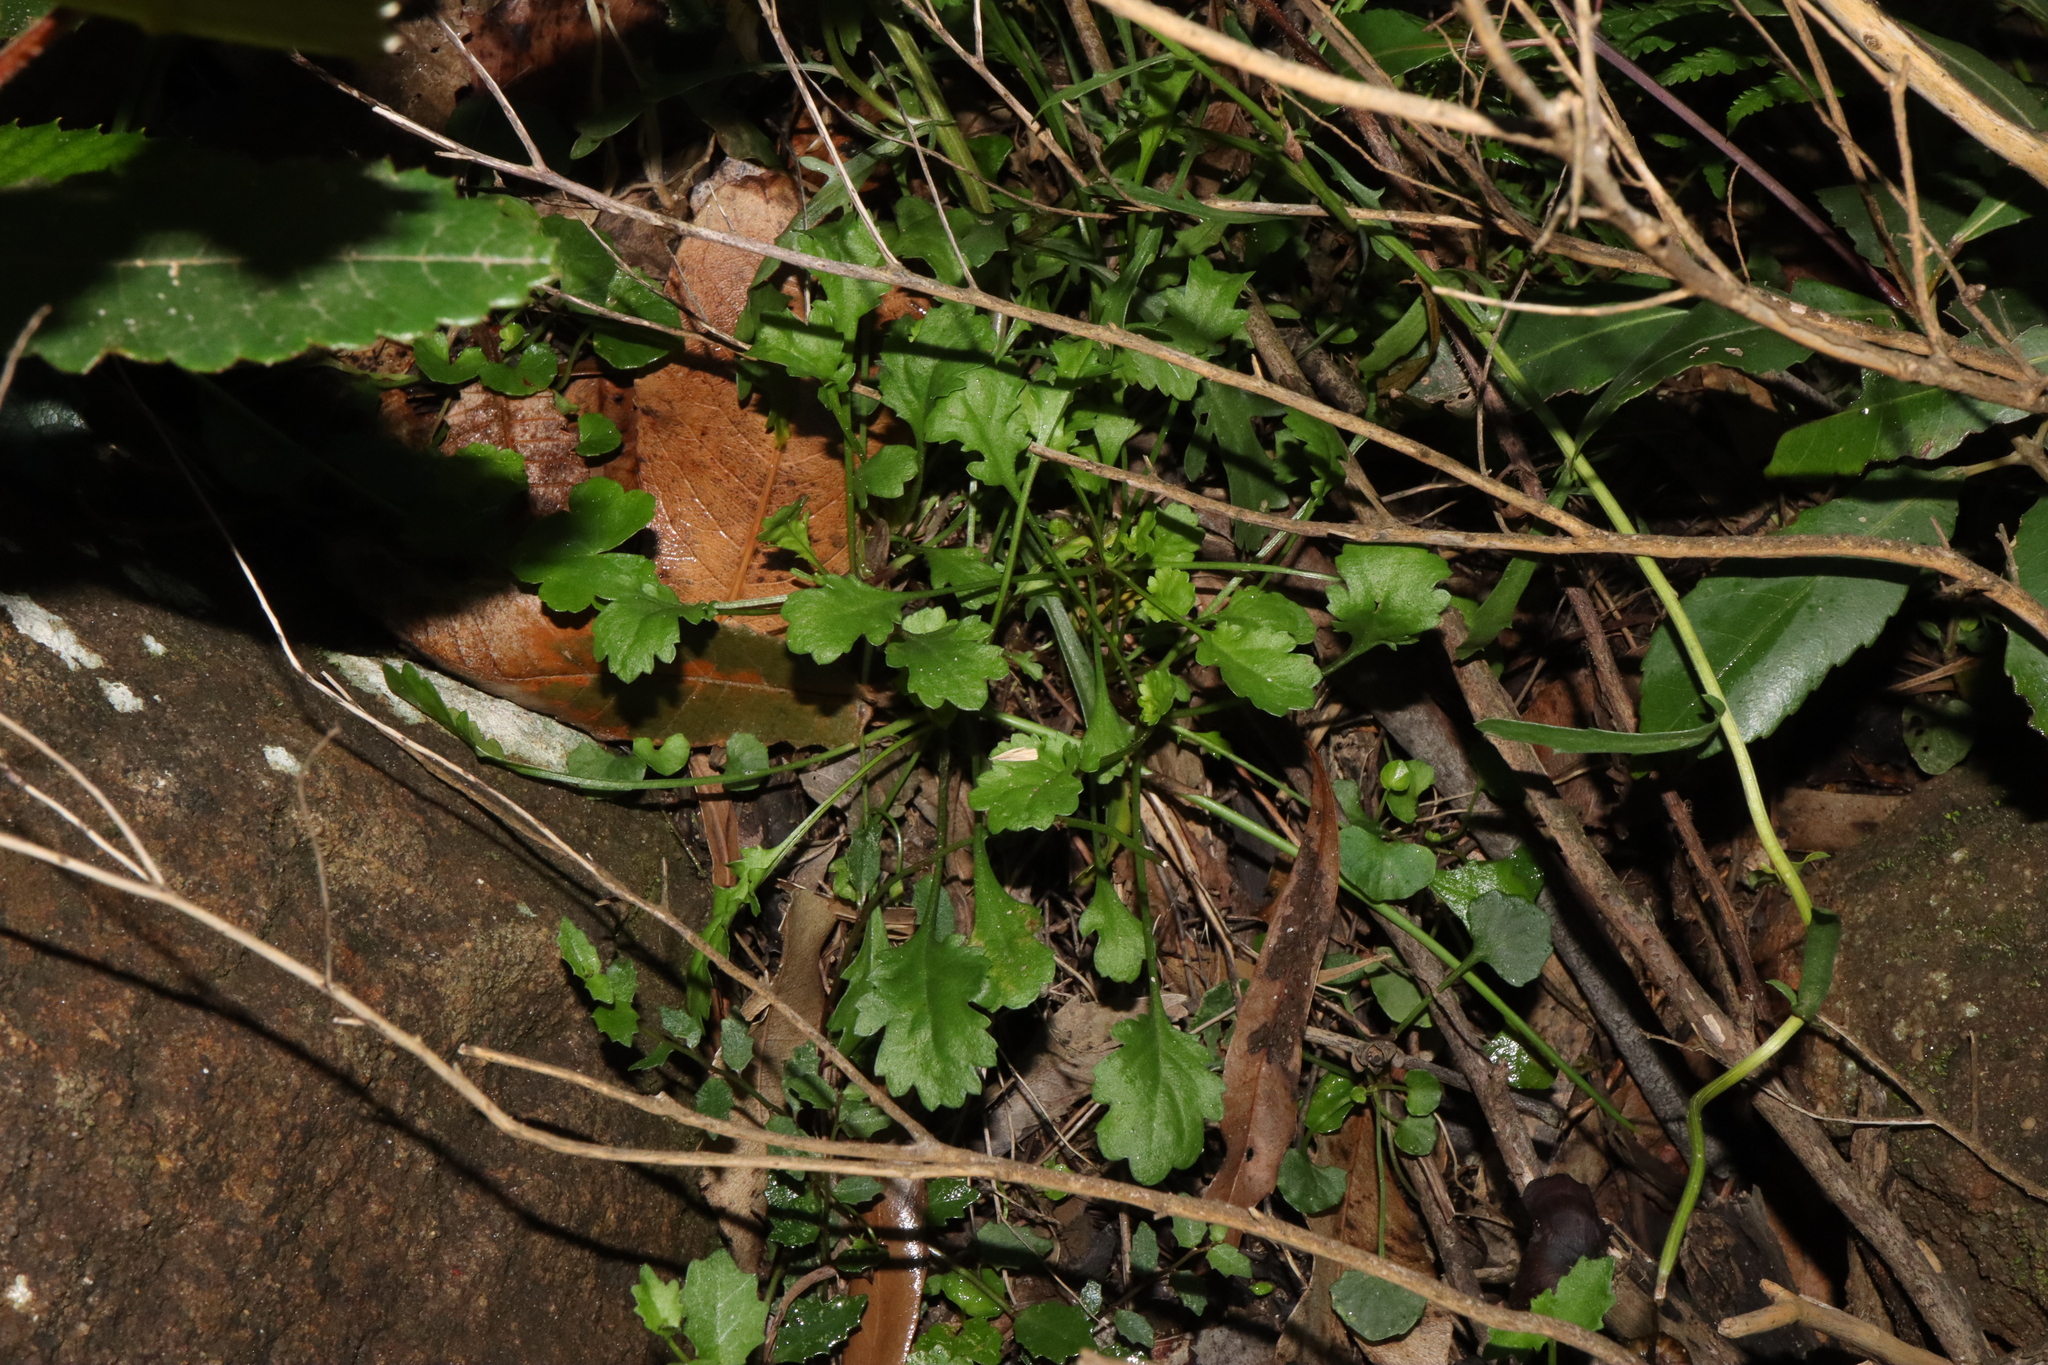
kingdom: Plantae
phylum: Tracheophyta
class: Magnoliopsida
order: Malpighiales
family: Violaceae
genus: Viola
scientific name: Viola silicestris
